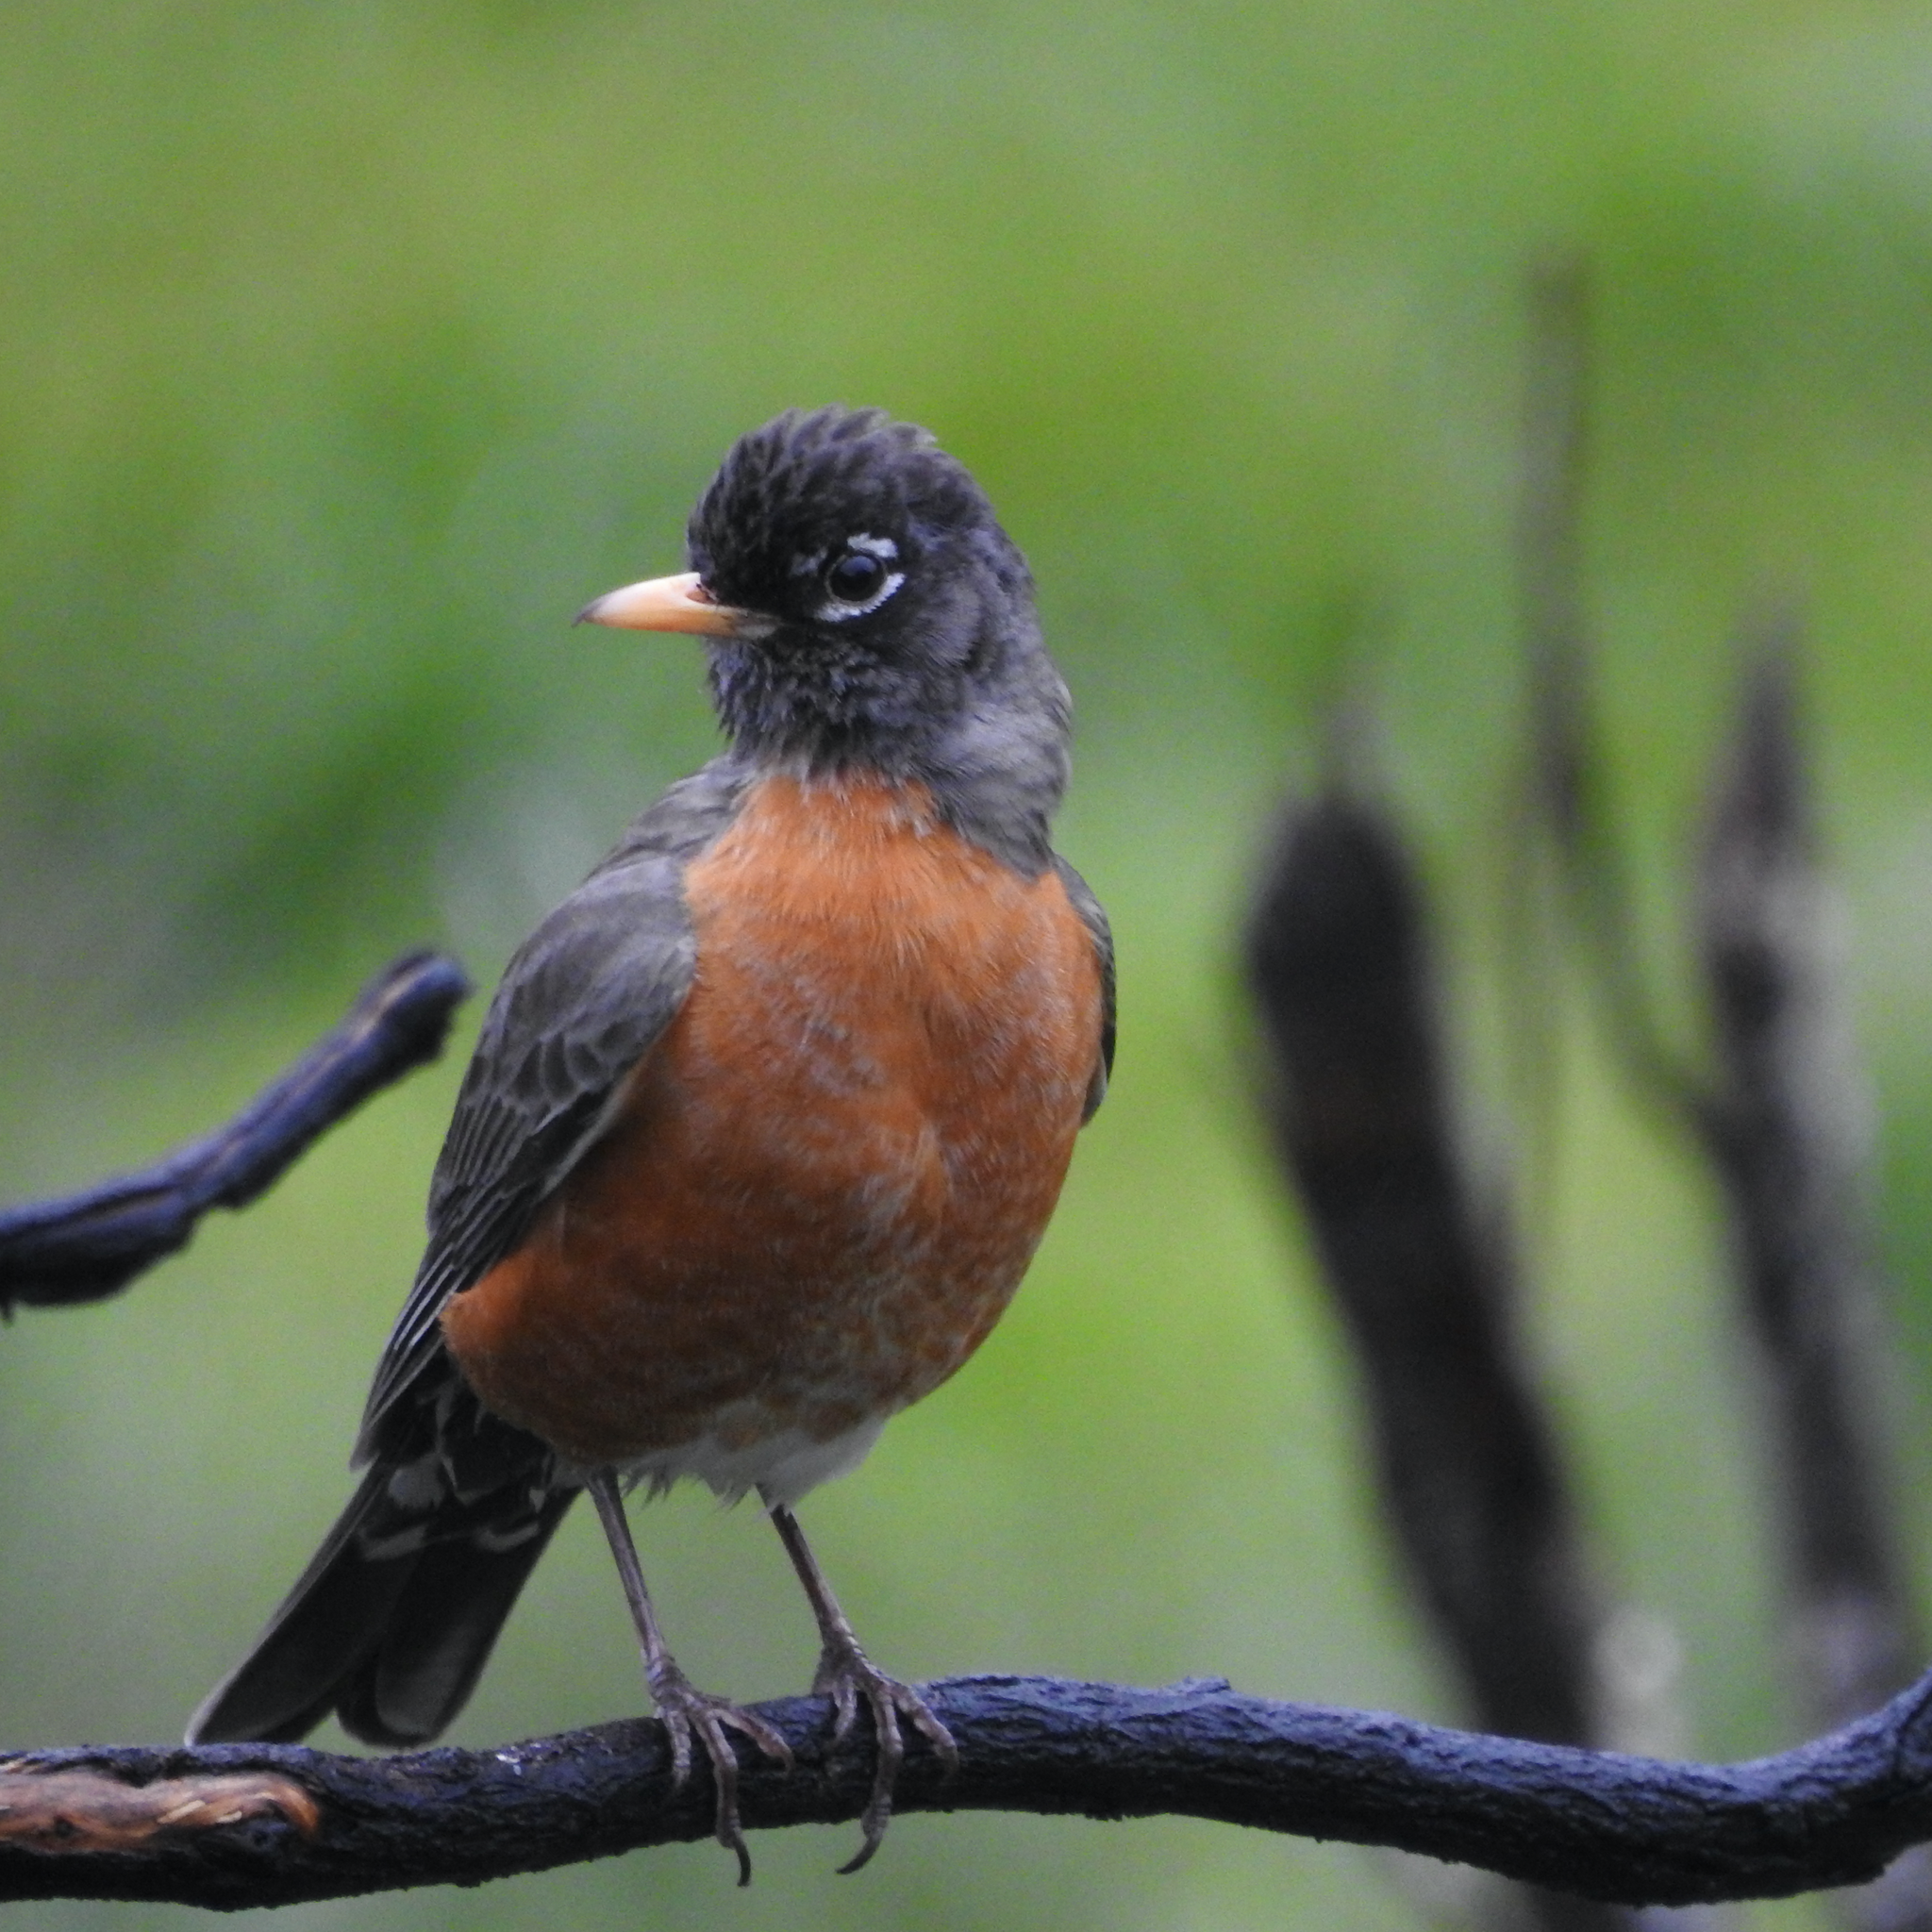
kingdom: Animalia
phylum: Chordata
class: Aves
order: Passeriformes
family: Turdidae
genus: Turdus
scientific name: Turdus migratorius
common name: American robin
